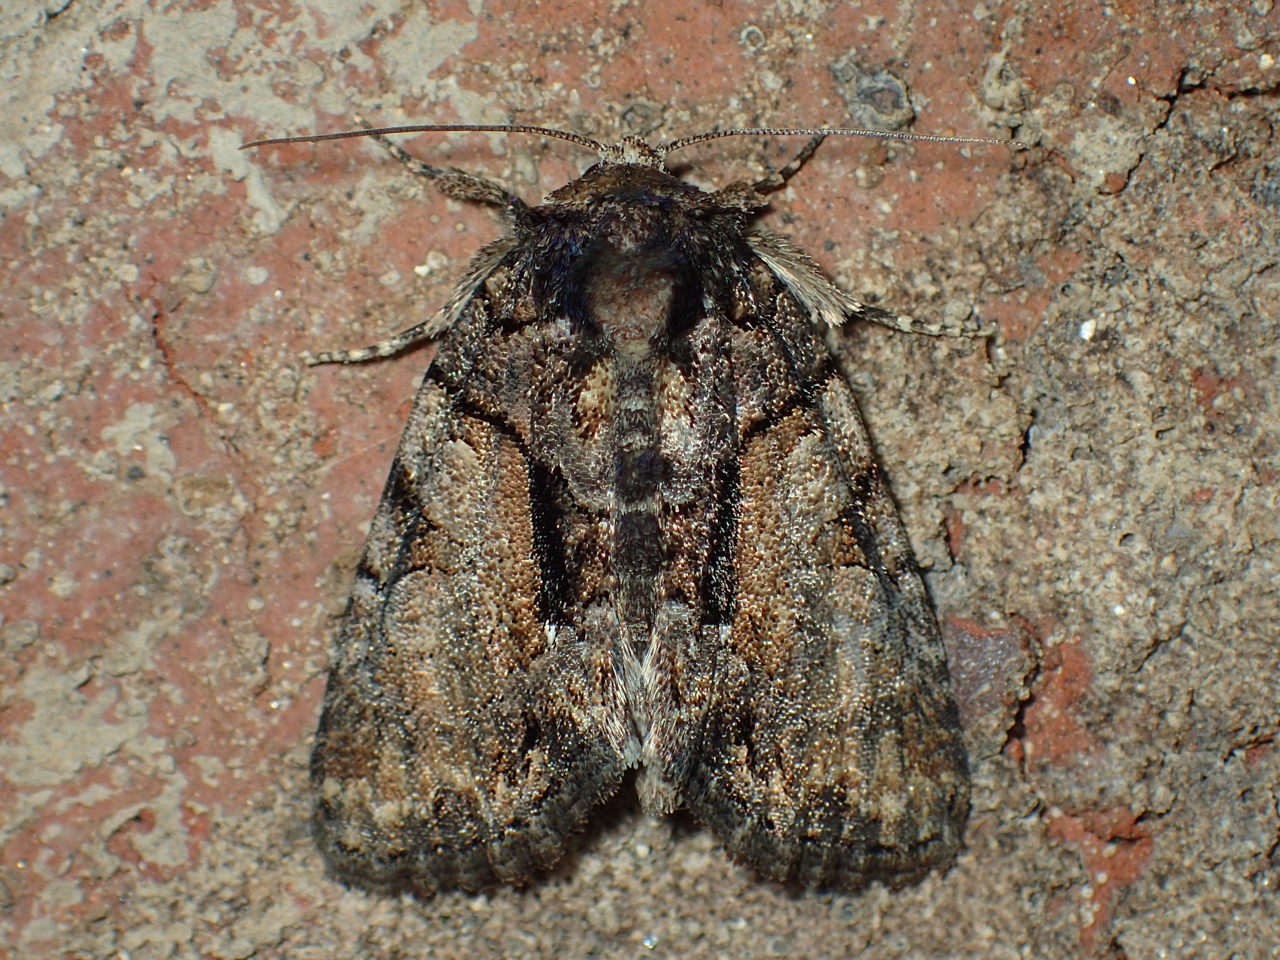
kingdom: Animalia
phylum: Arthropoda
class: Insecta
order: Lepidoptera
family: Noctuidae
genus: Chytonix
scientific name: Chytonix palliatricula
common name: Cloaked marvel
